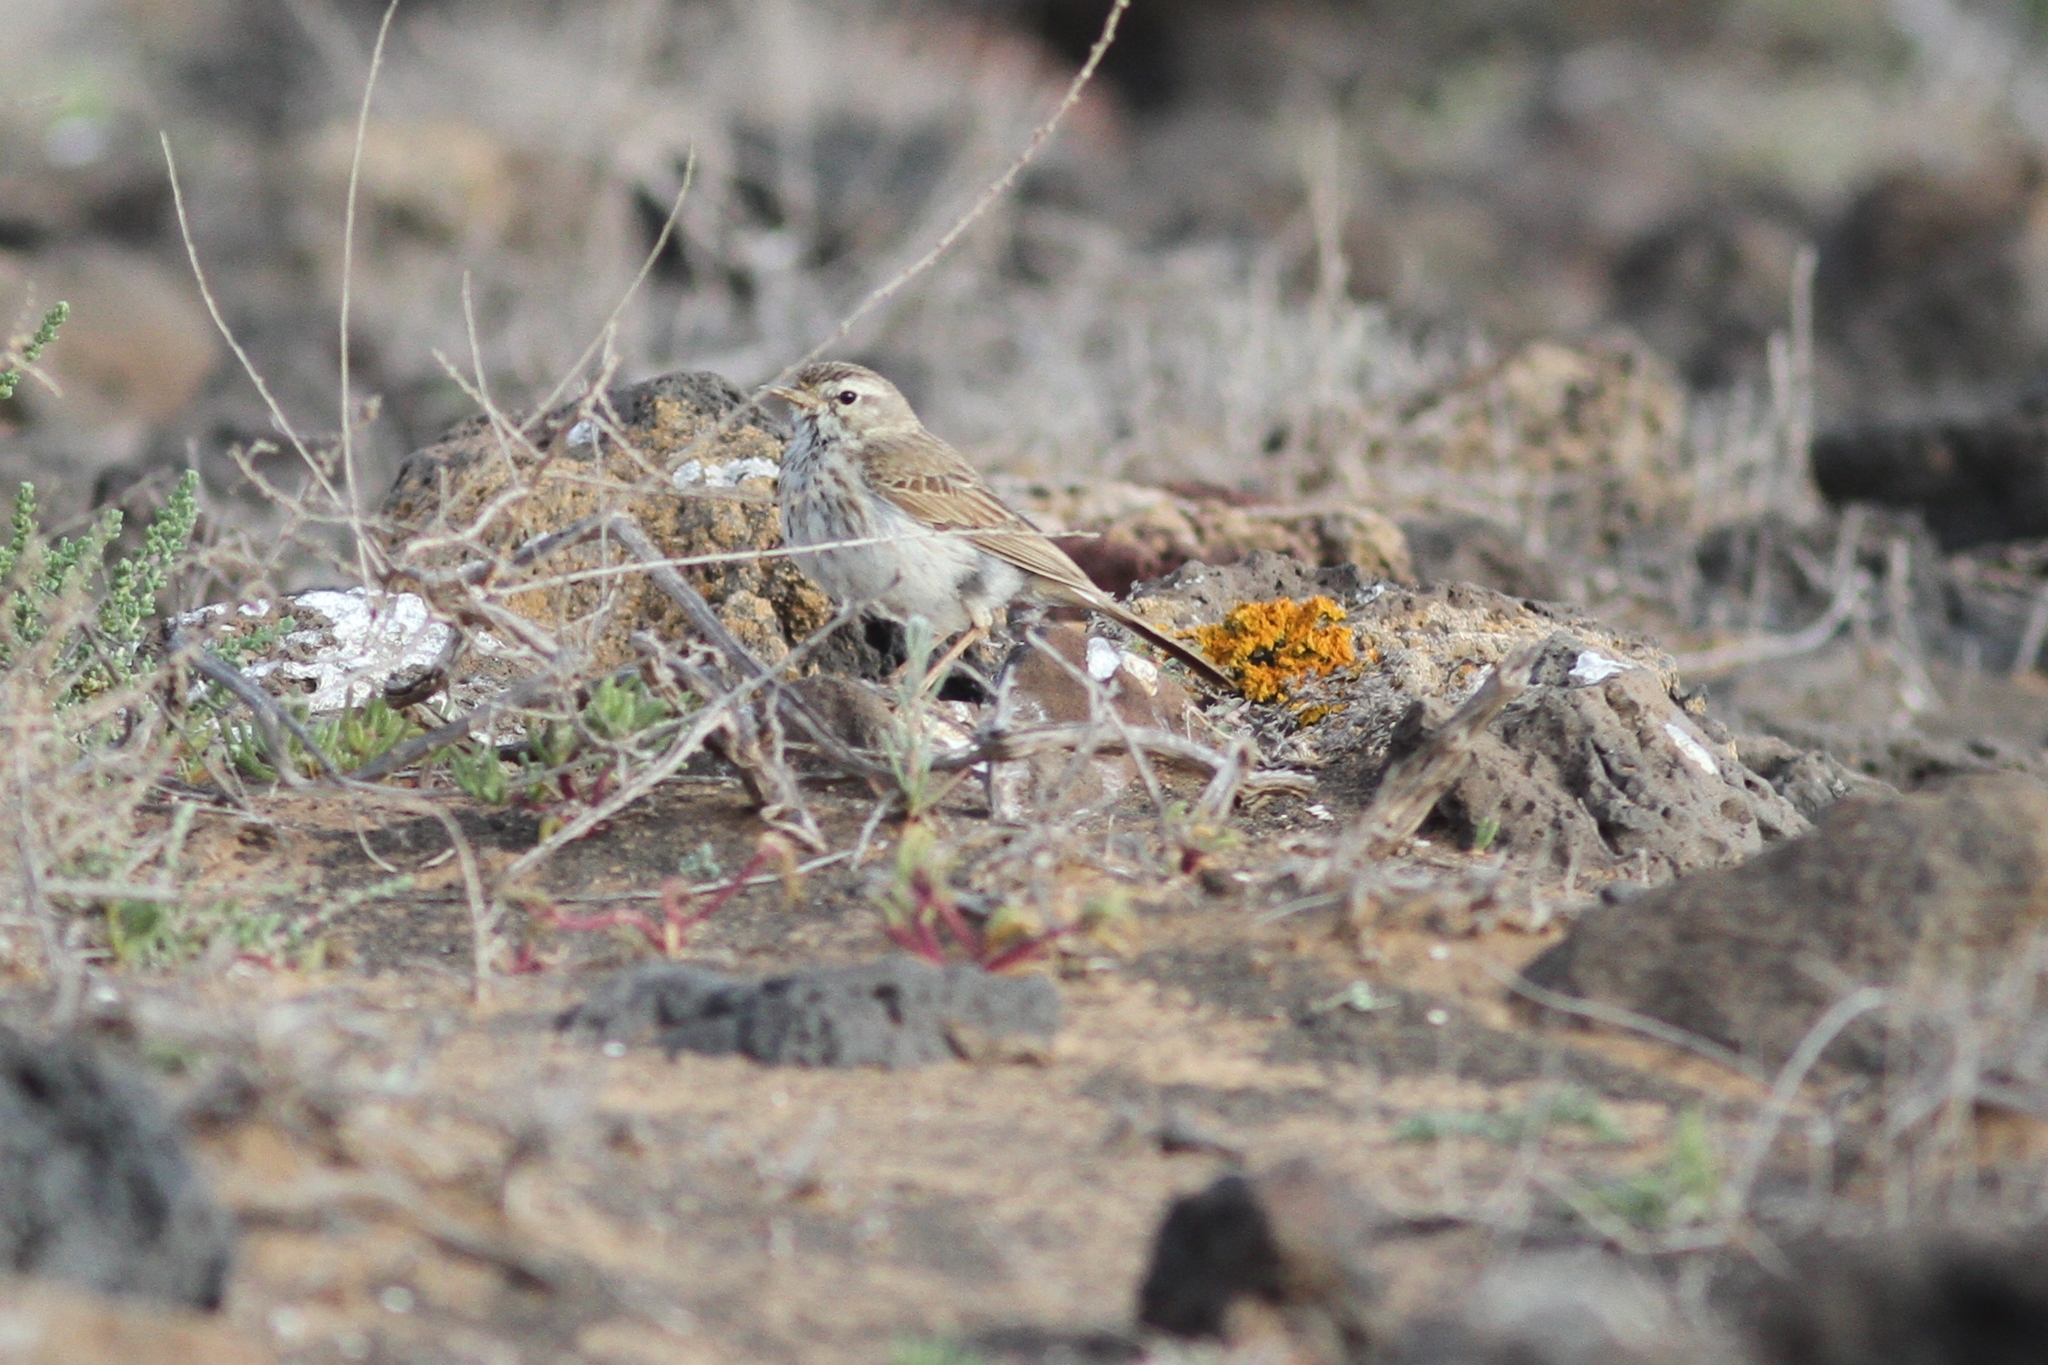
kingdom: Animalia
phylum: Chordata
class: Aves
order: Passeriformes
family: Motacillidae
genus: Anthus
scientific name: Anthus berthelotii
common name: Berthelot's pipit
